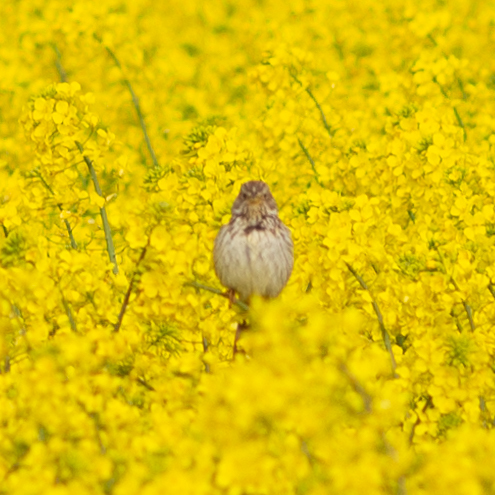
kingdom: Animalia
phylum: Chordata
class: Aves
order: Passeriformes
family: Emberizidae
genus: Emberiza
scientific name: Emberiza calandra
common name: Corn bunting
